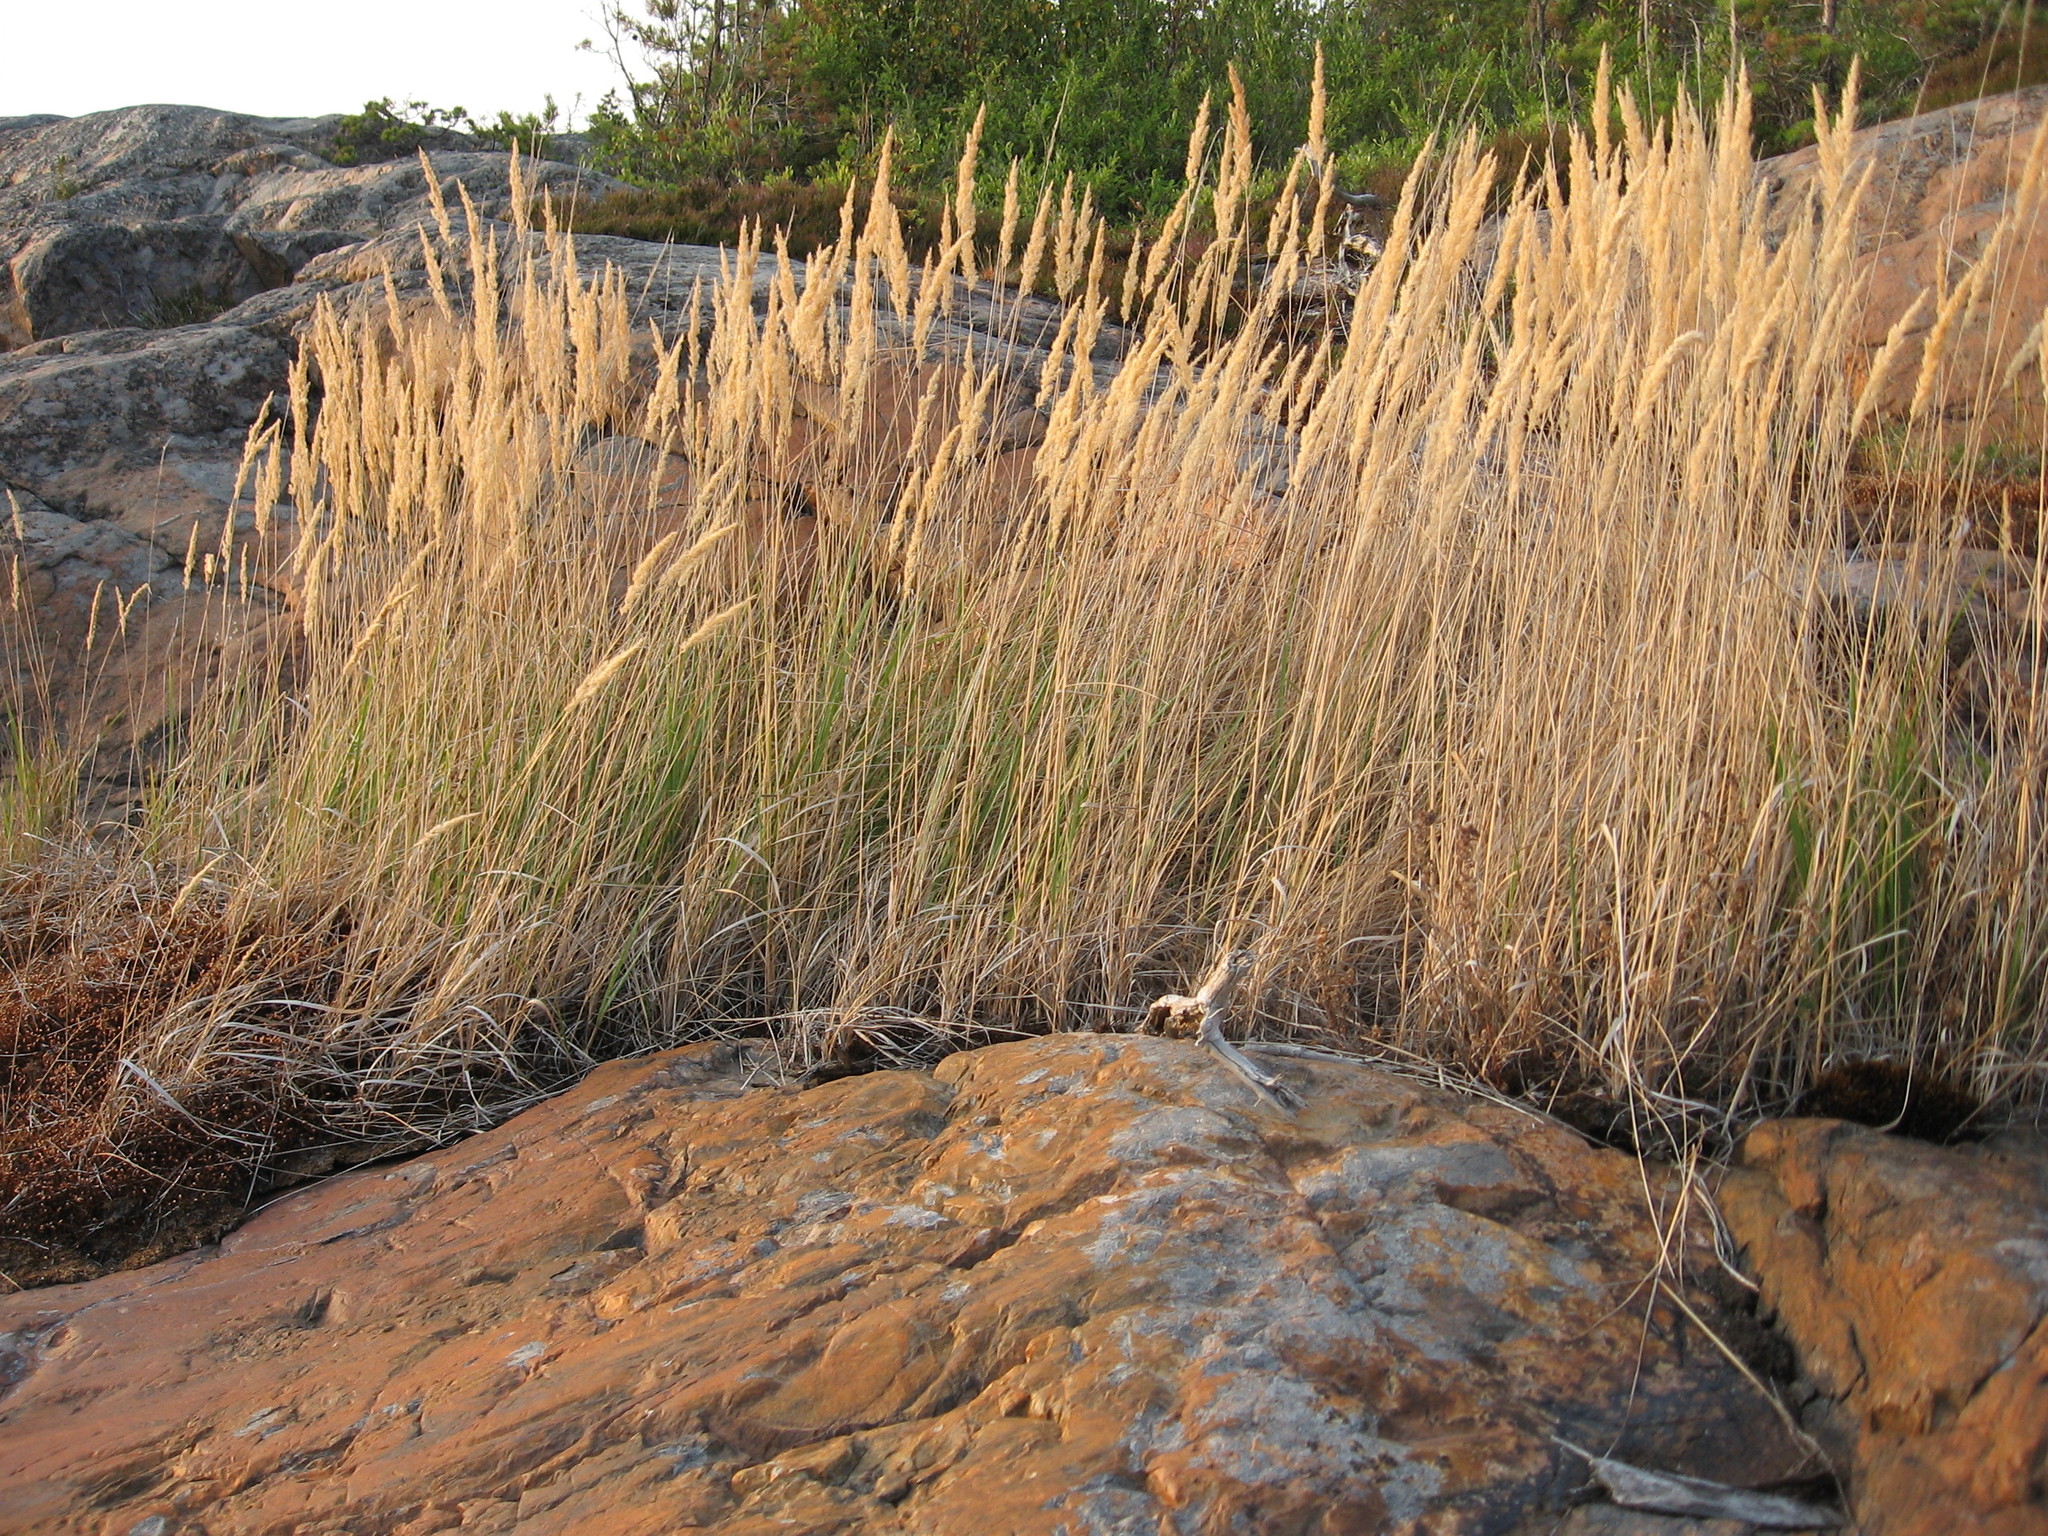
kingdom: Plantae
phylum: Tracheophyta
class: Liliopsida
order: Poales
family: Poaceae
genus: Calamagrostis
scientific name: Calamagrostis epigejos
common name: Wood small-reed
